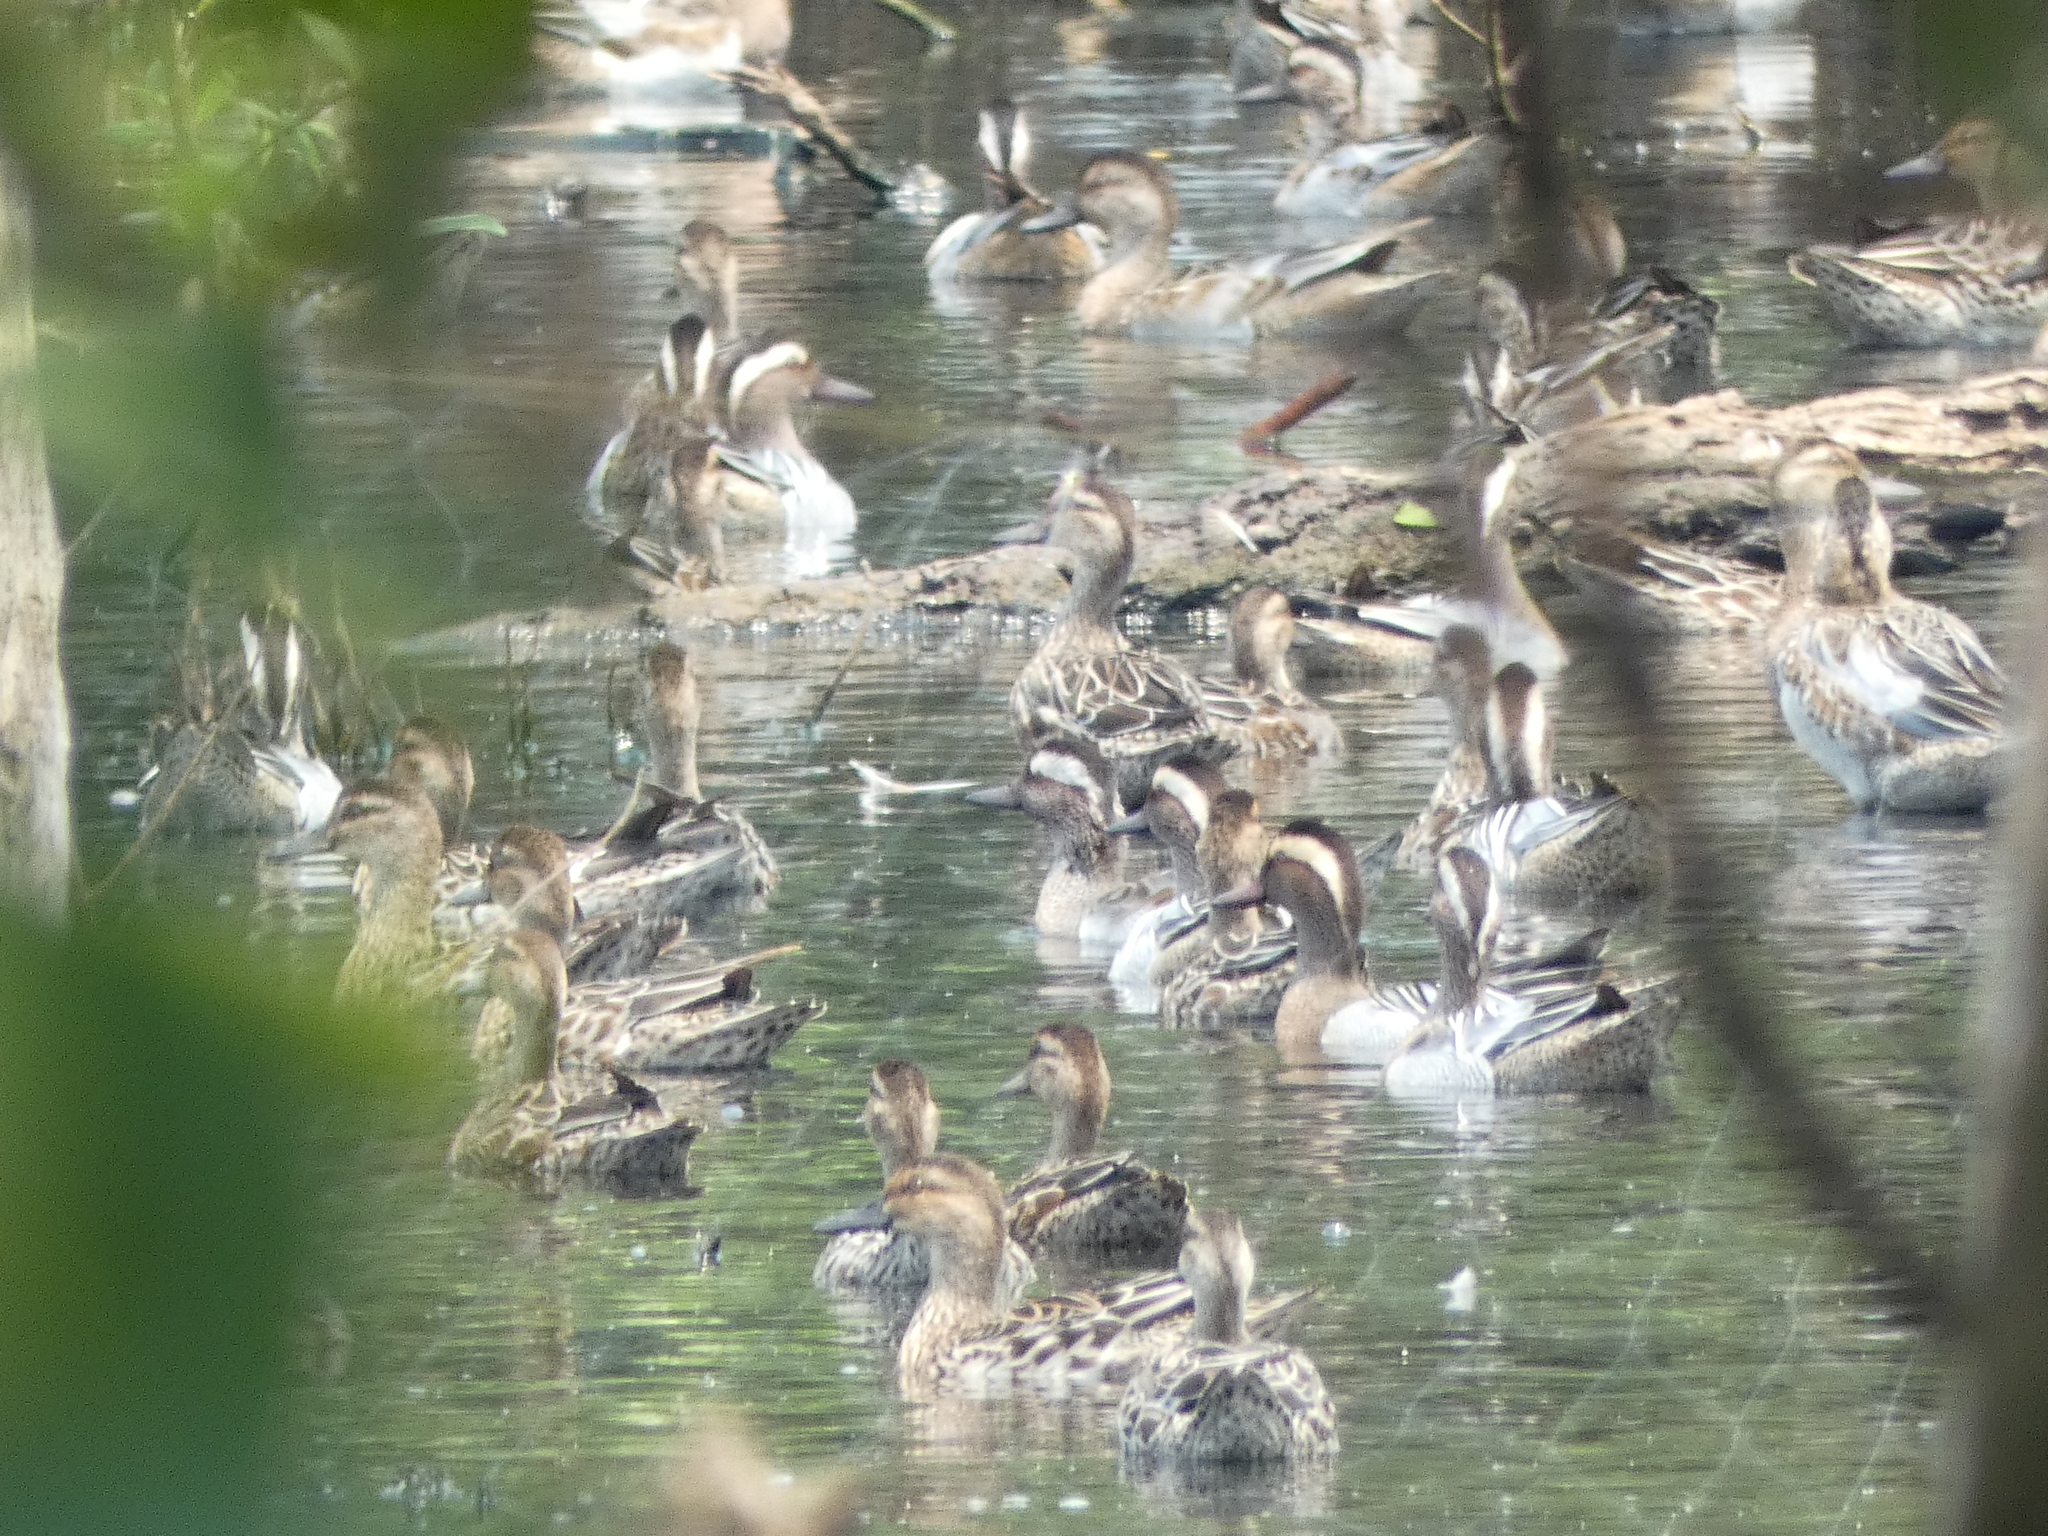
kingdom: Animalia
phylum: Chordata
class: Aves
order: Anseriformes
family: Anatidae
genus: Spatula
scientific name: Spatula querquedula
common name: Garganey
